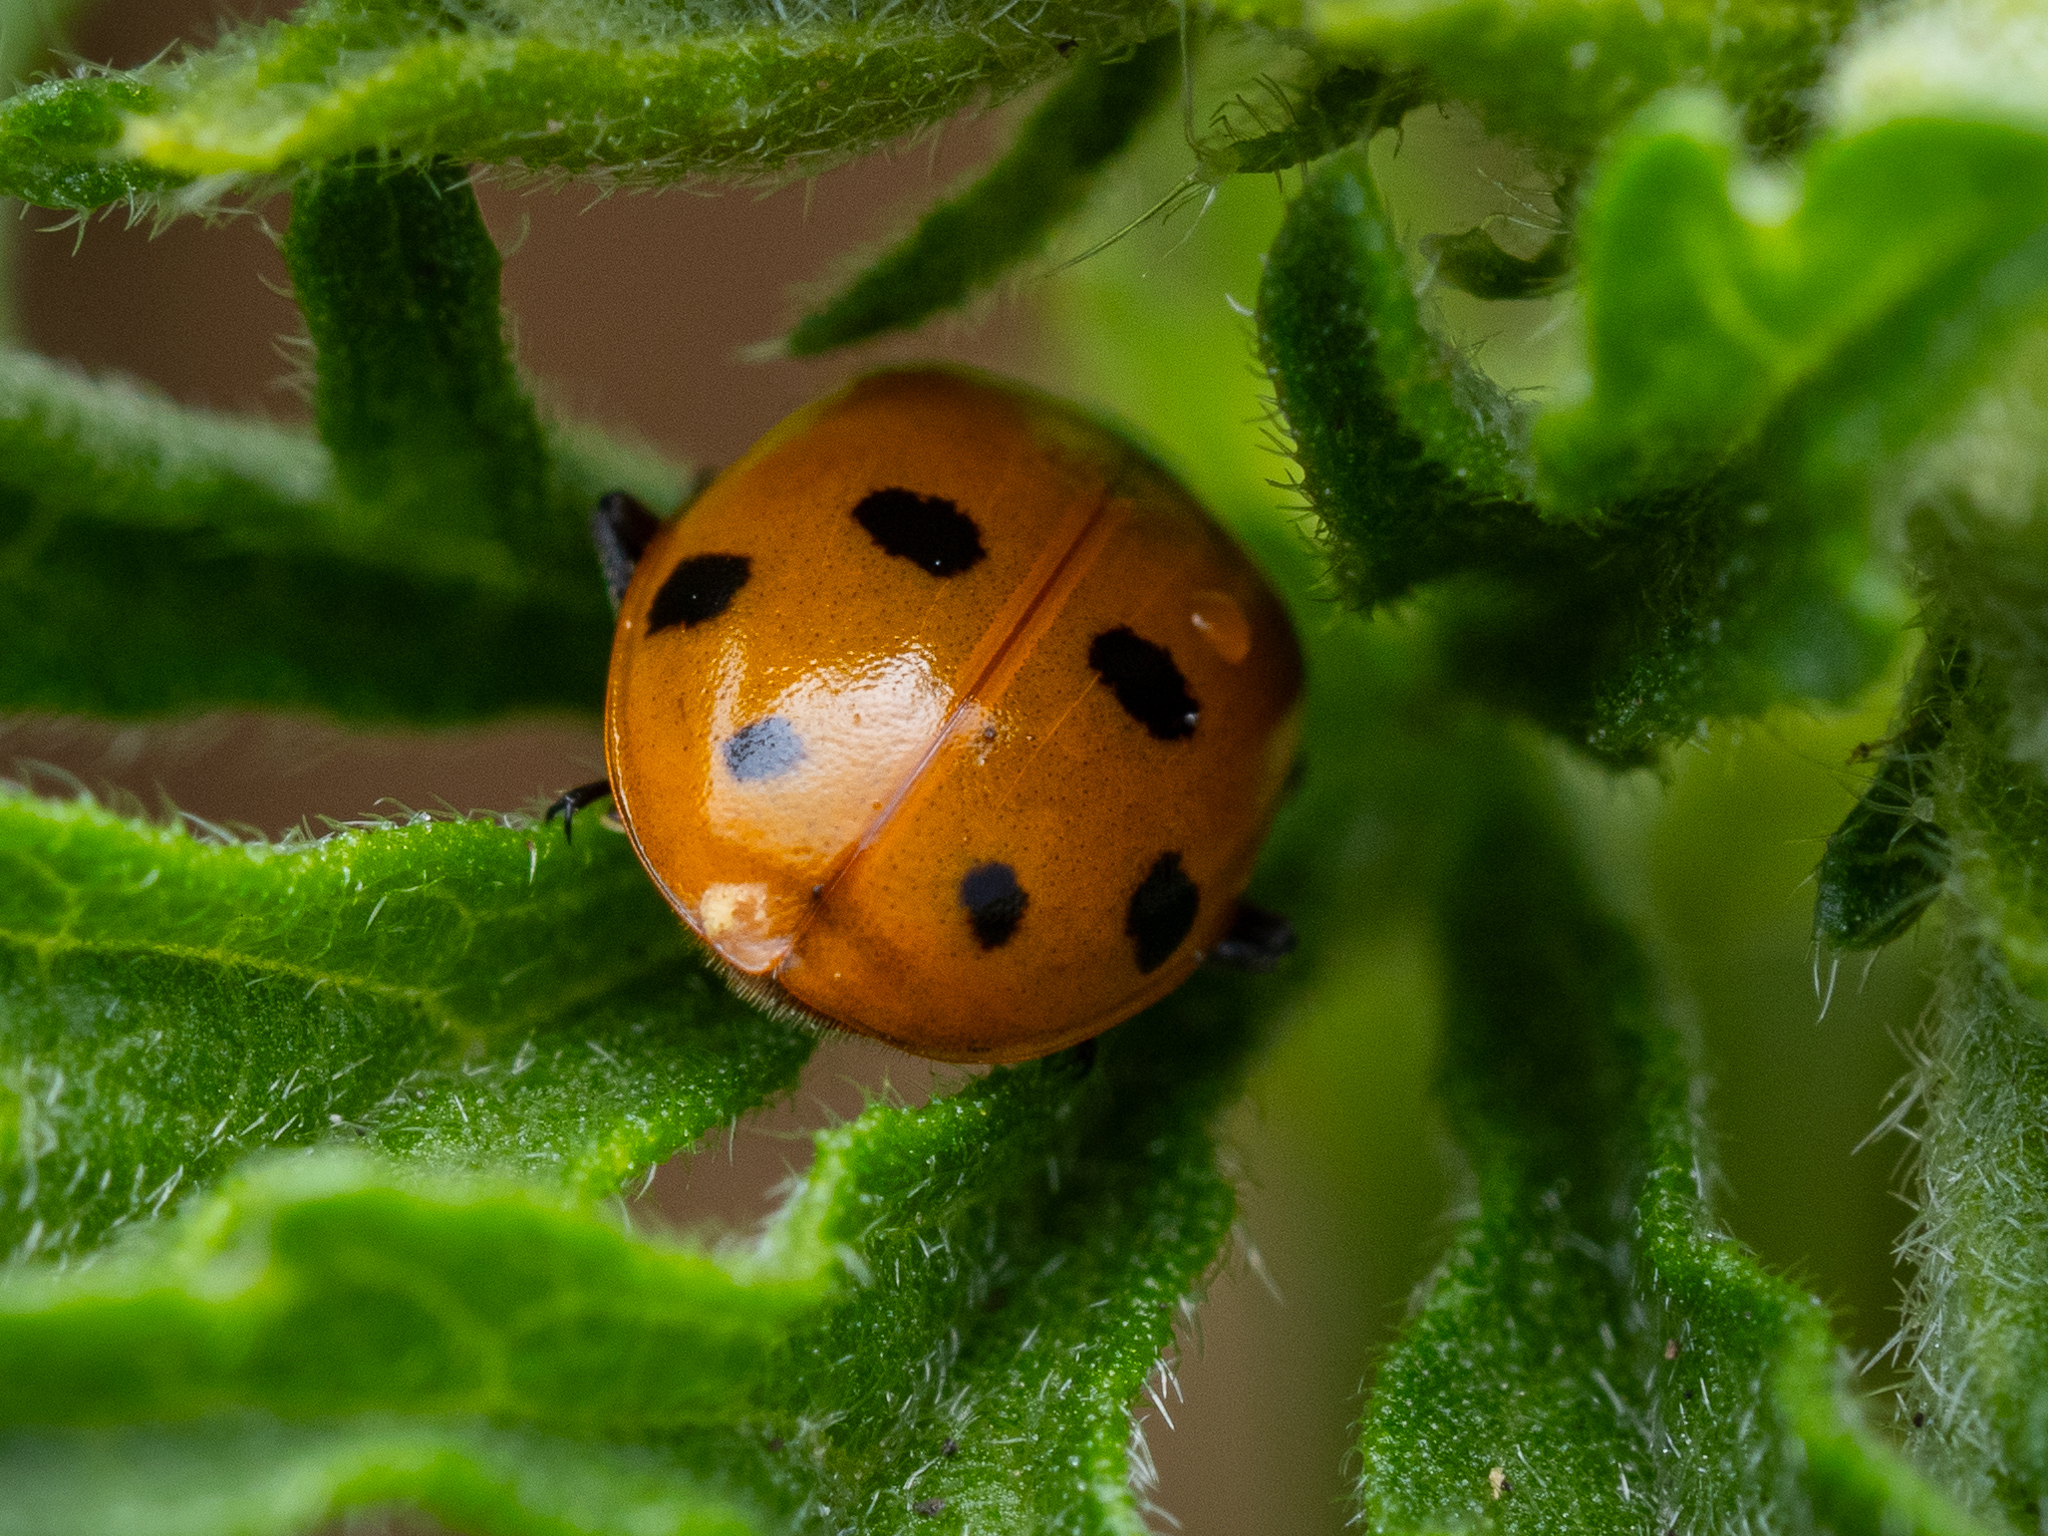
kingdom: Animalia
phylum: Arthropoda
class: Insecta
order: Coleoptera
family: Coccinellidae
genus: Hippodamia
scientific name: Hippodamia variegata
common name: Ladybird beetle
